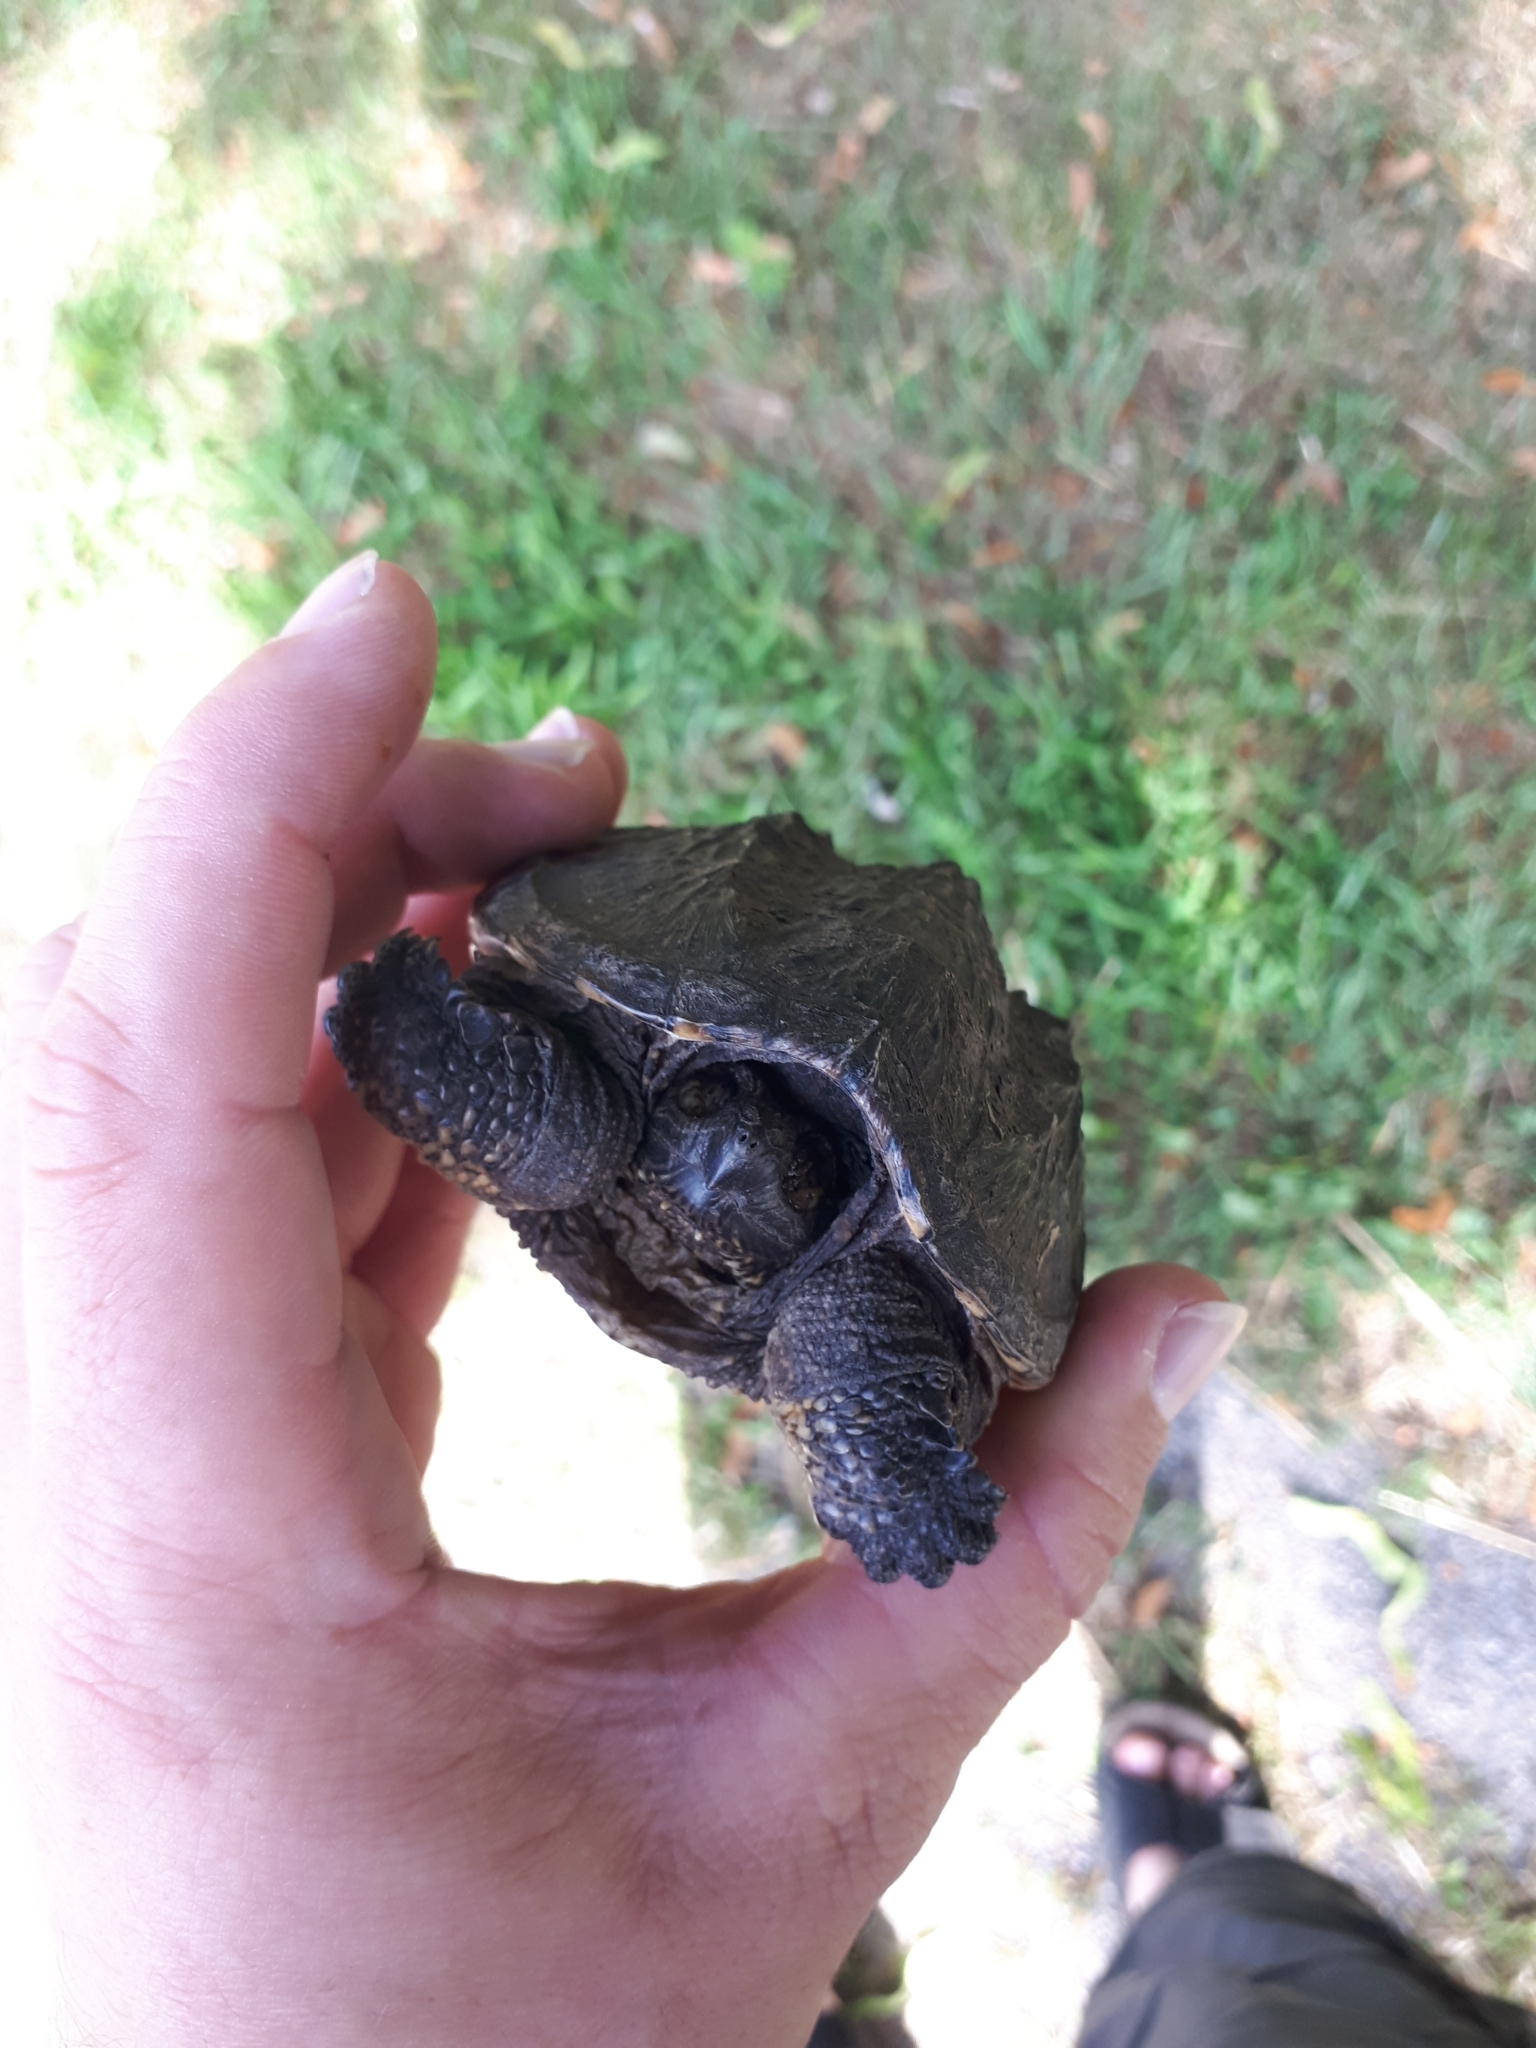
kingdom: Animalia
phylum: Chordata
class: Testudines
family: Chelydridae
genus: Chelydra
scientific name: Chelydra serpentina
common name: Common snapping turtle
